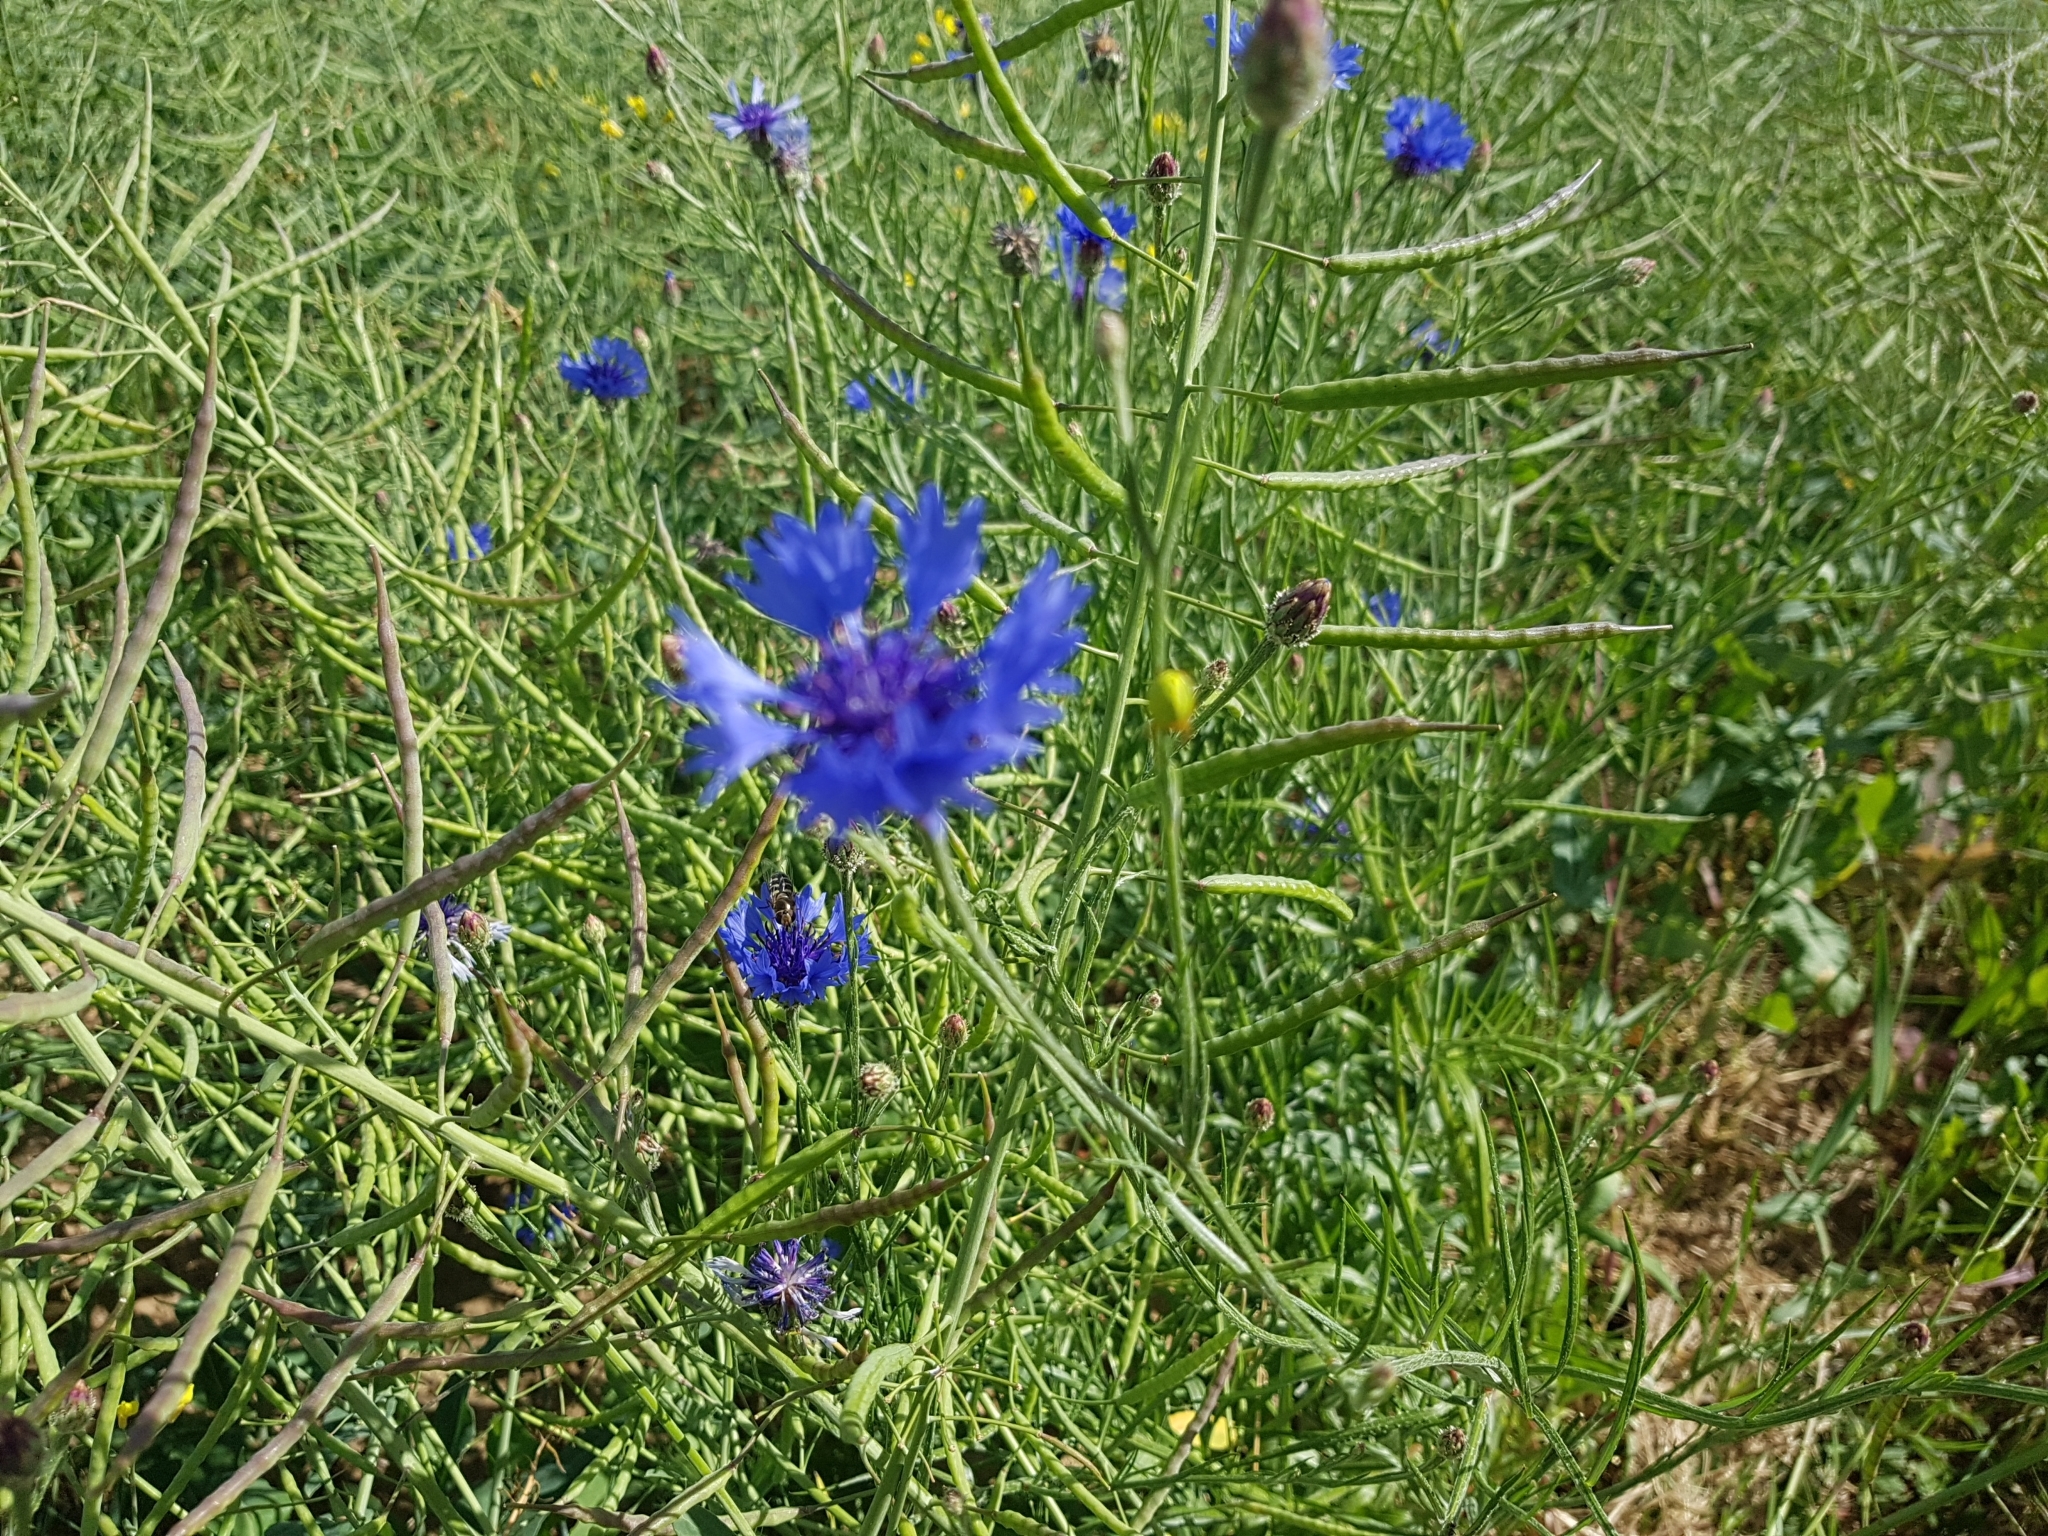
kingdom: Plantae
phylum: Tracheophyta
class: Magnoliopsida
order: Asterales
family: Asteraceae
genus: Centaurea
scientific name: Centaurea cyanus
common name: Cornflower
